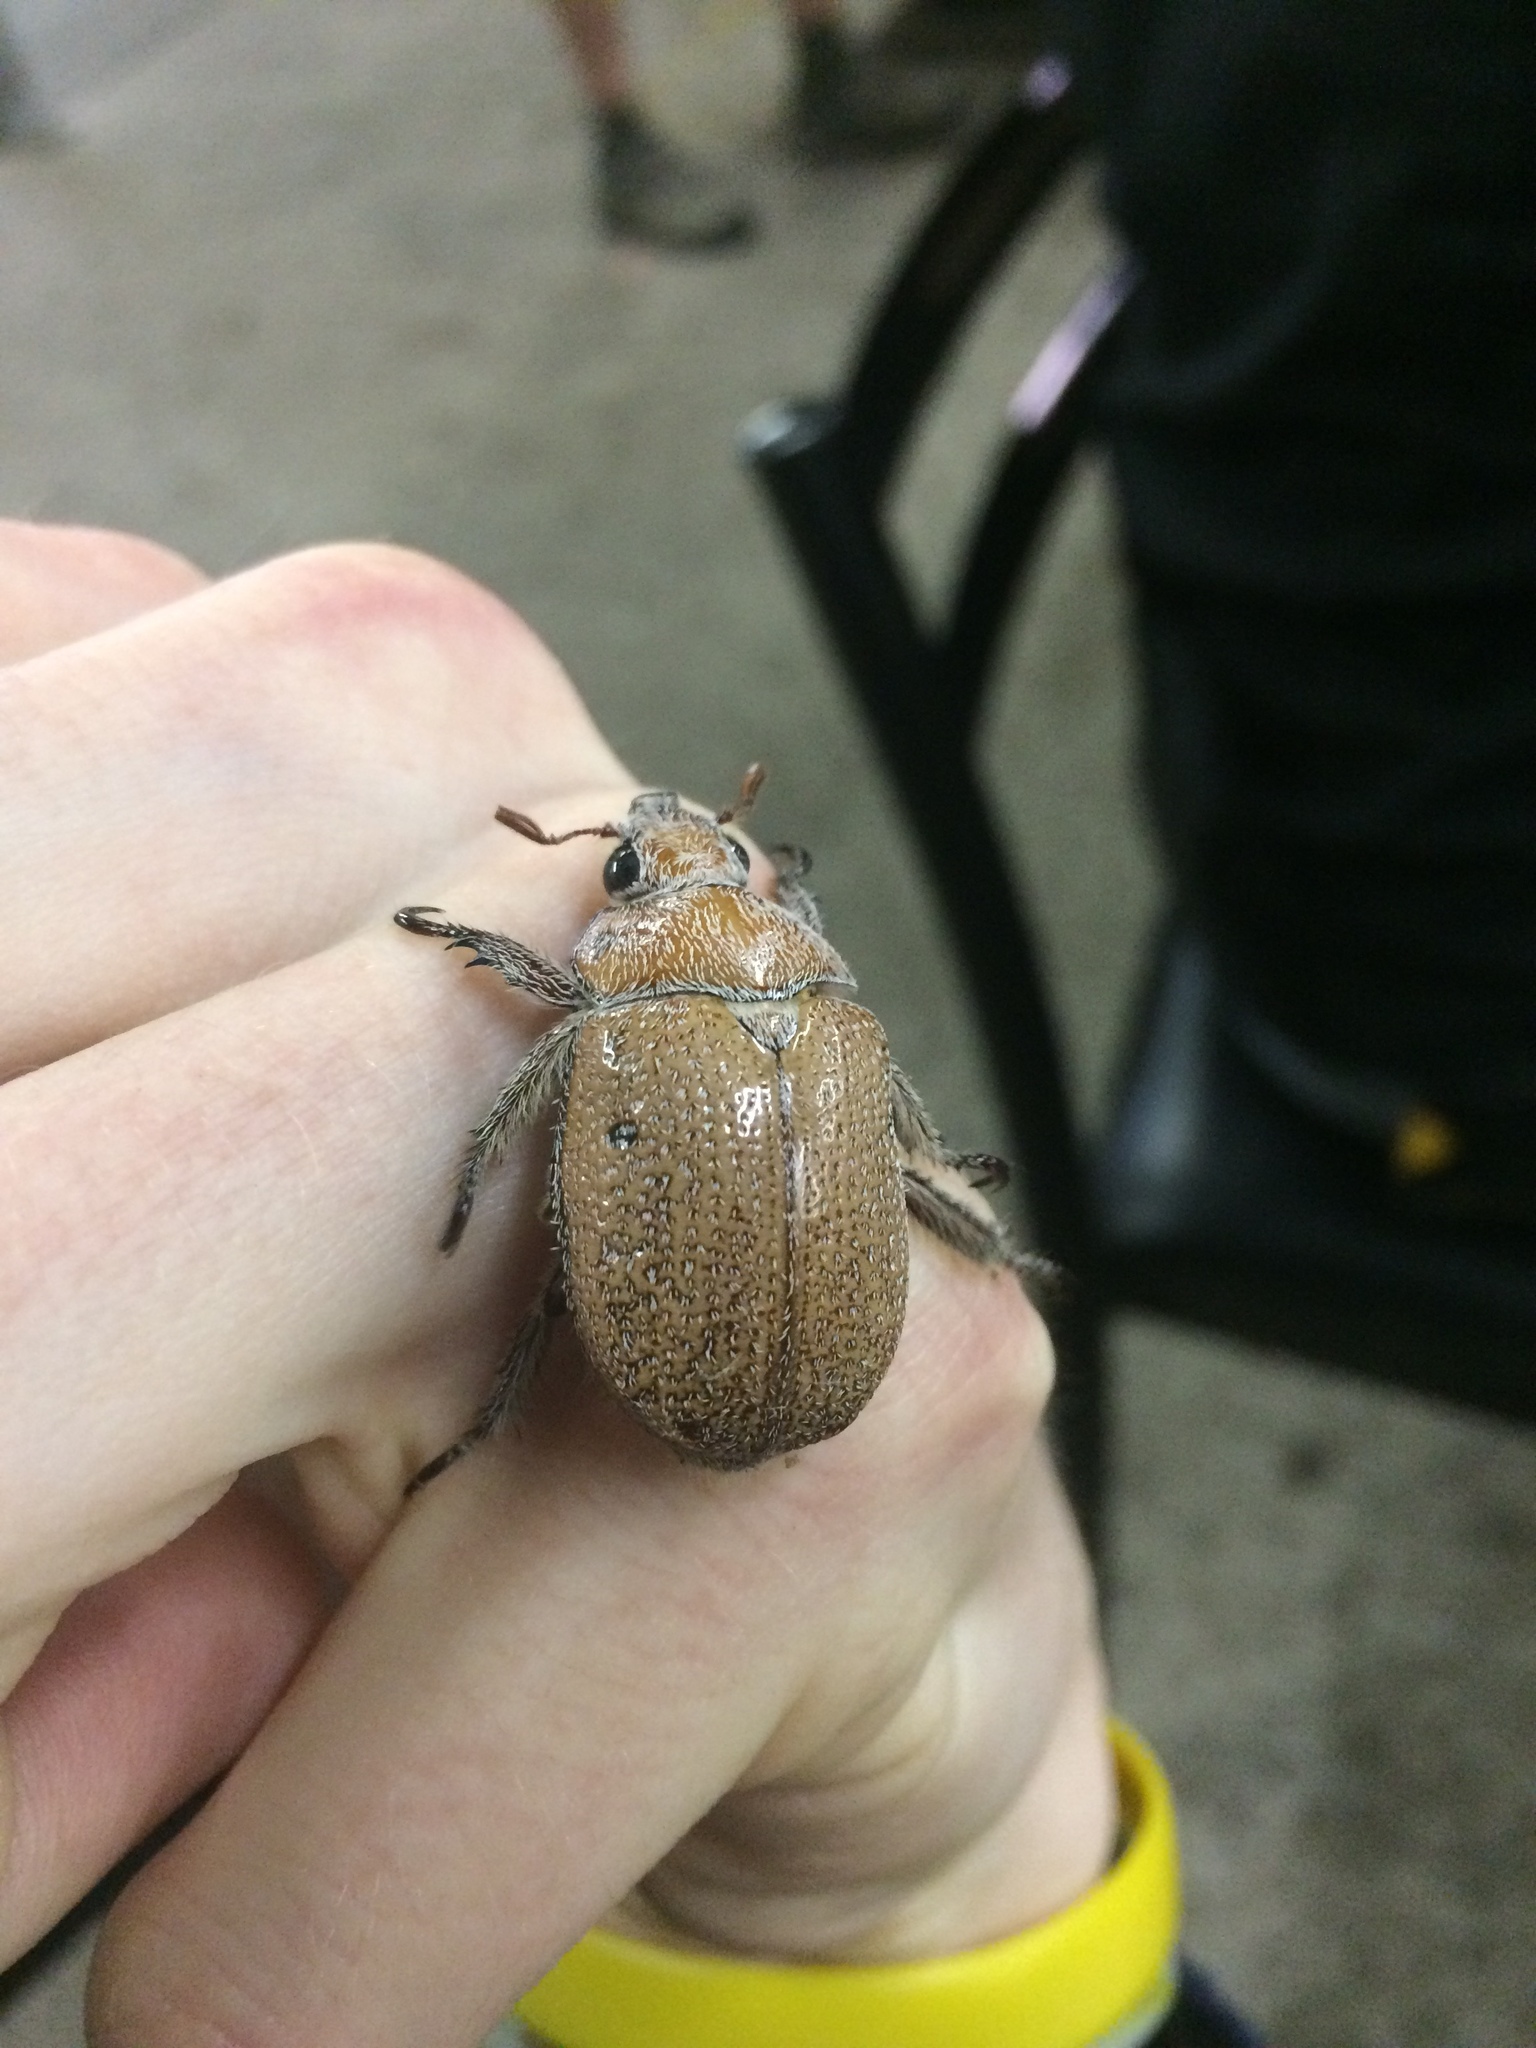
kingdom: Animalia
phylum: Arthropoda
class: Insecta
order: Coleoptera
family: Scarabaeidae
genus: Anoplognathus
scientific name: Anoplognathus velutinus
